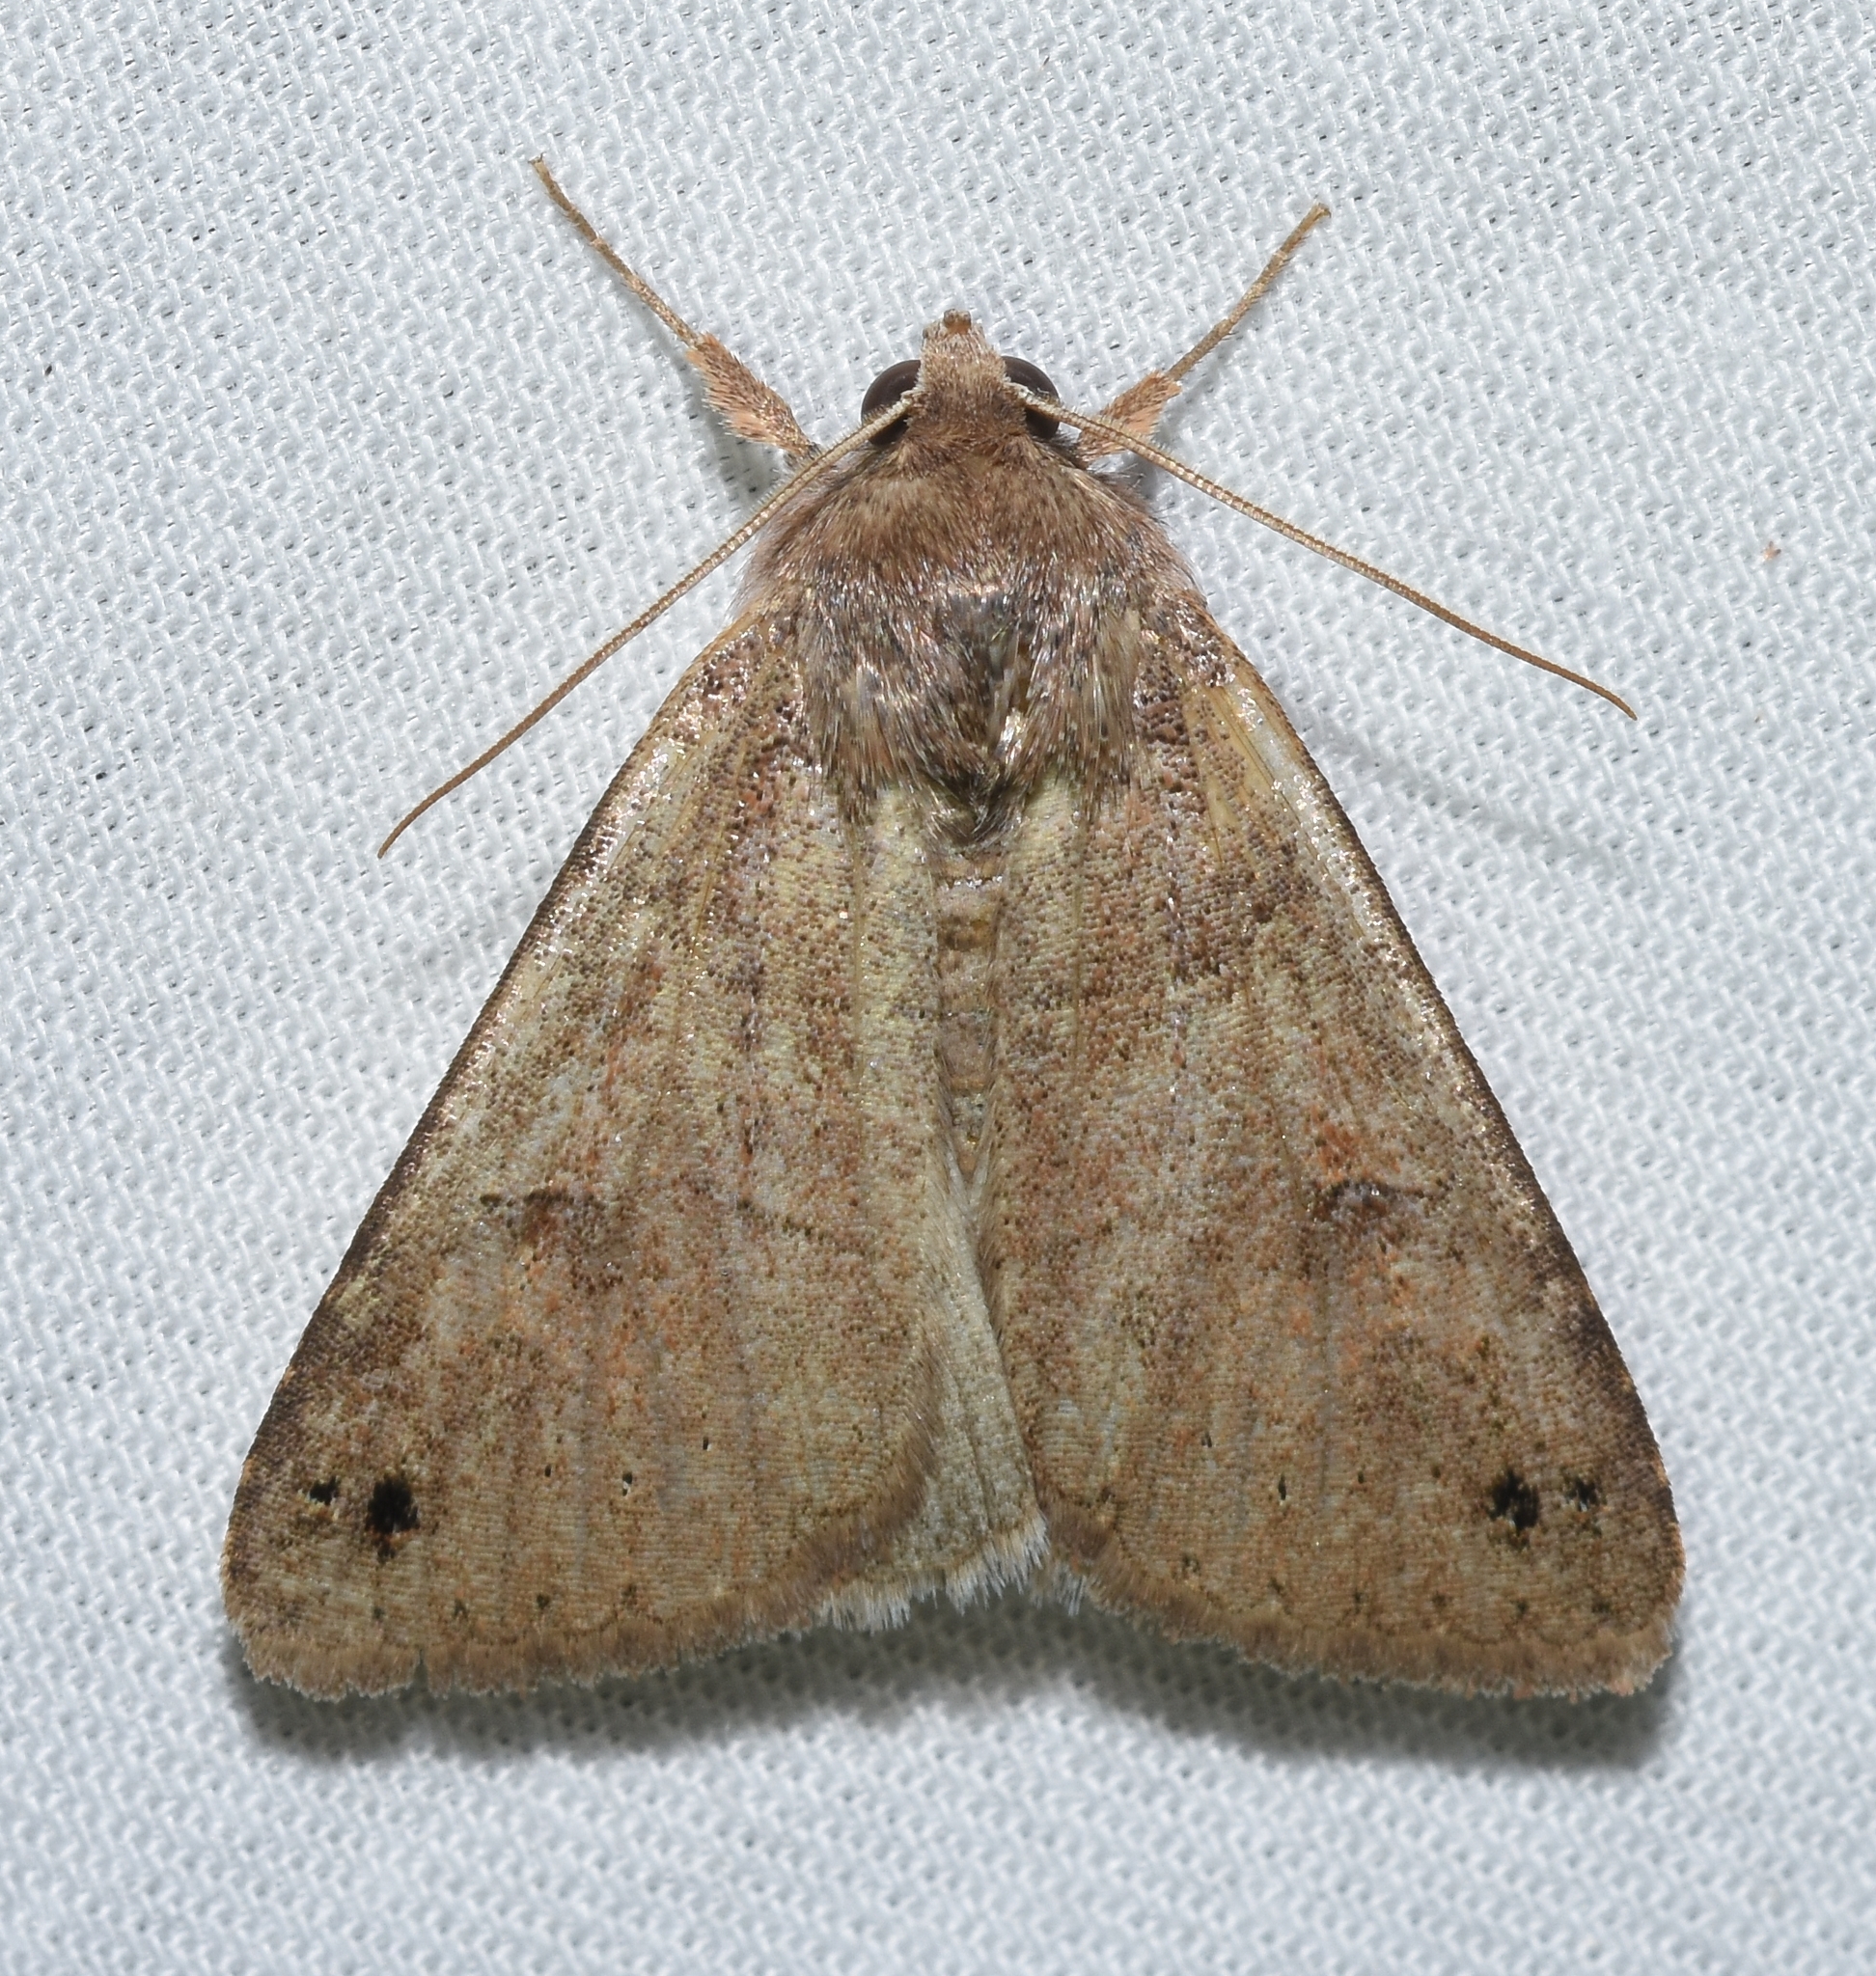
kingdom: Animalia
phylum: Arthropoda
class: Insecta
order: Lepidoptera
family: Erebidae
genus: Cissusa
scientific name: Cissusa spadix
